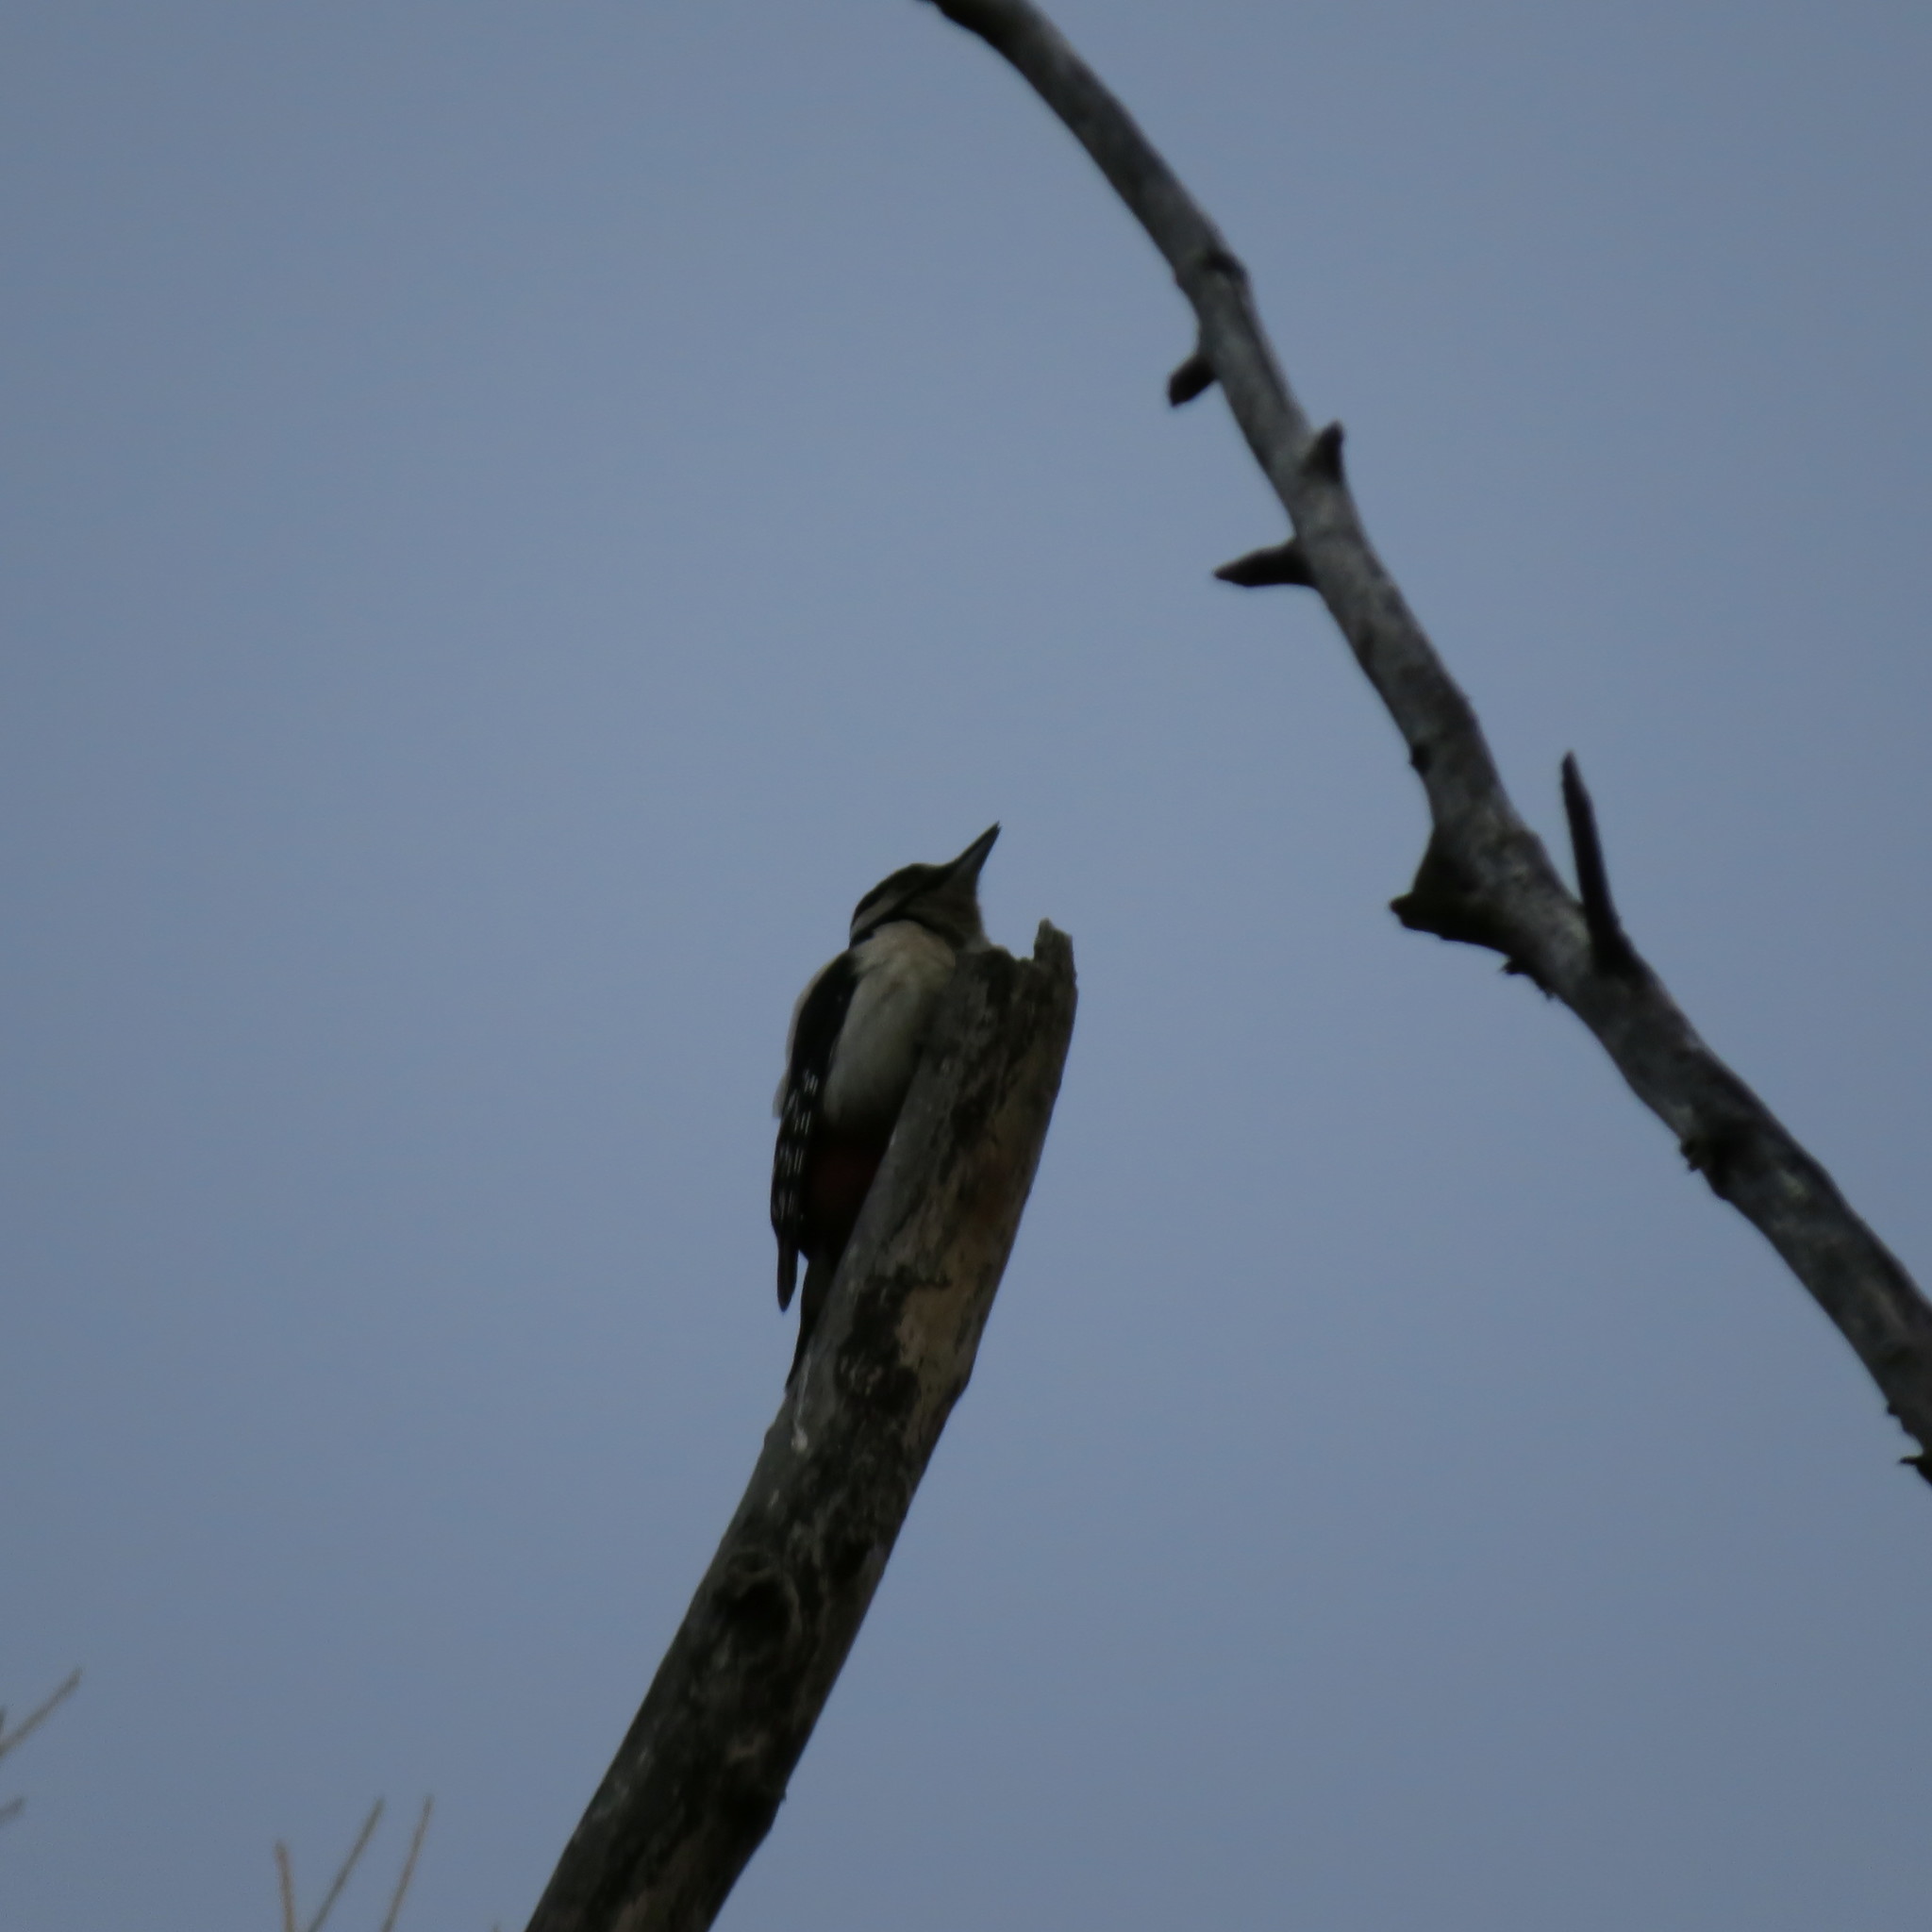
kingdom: Animalia
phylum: Chordata
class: Aves
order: Piciformes
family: Picidae
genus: Dendrocopos
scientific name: Dendrocopos major
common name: Great spotted woodpecker
